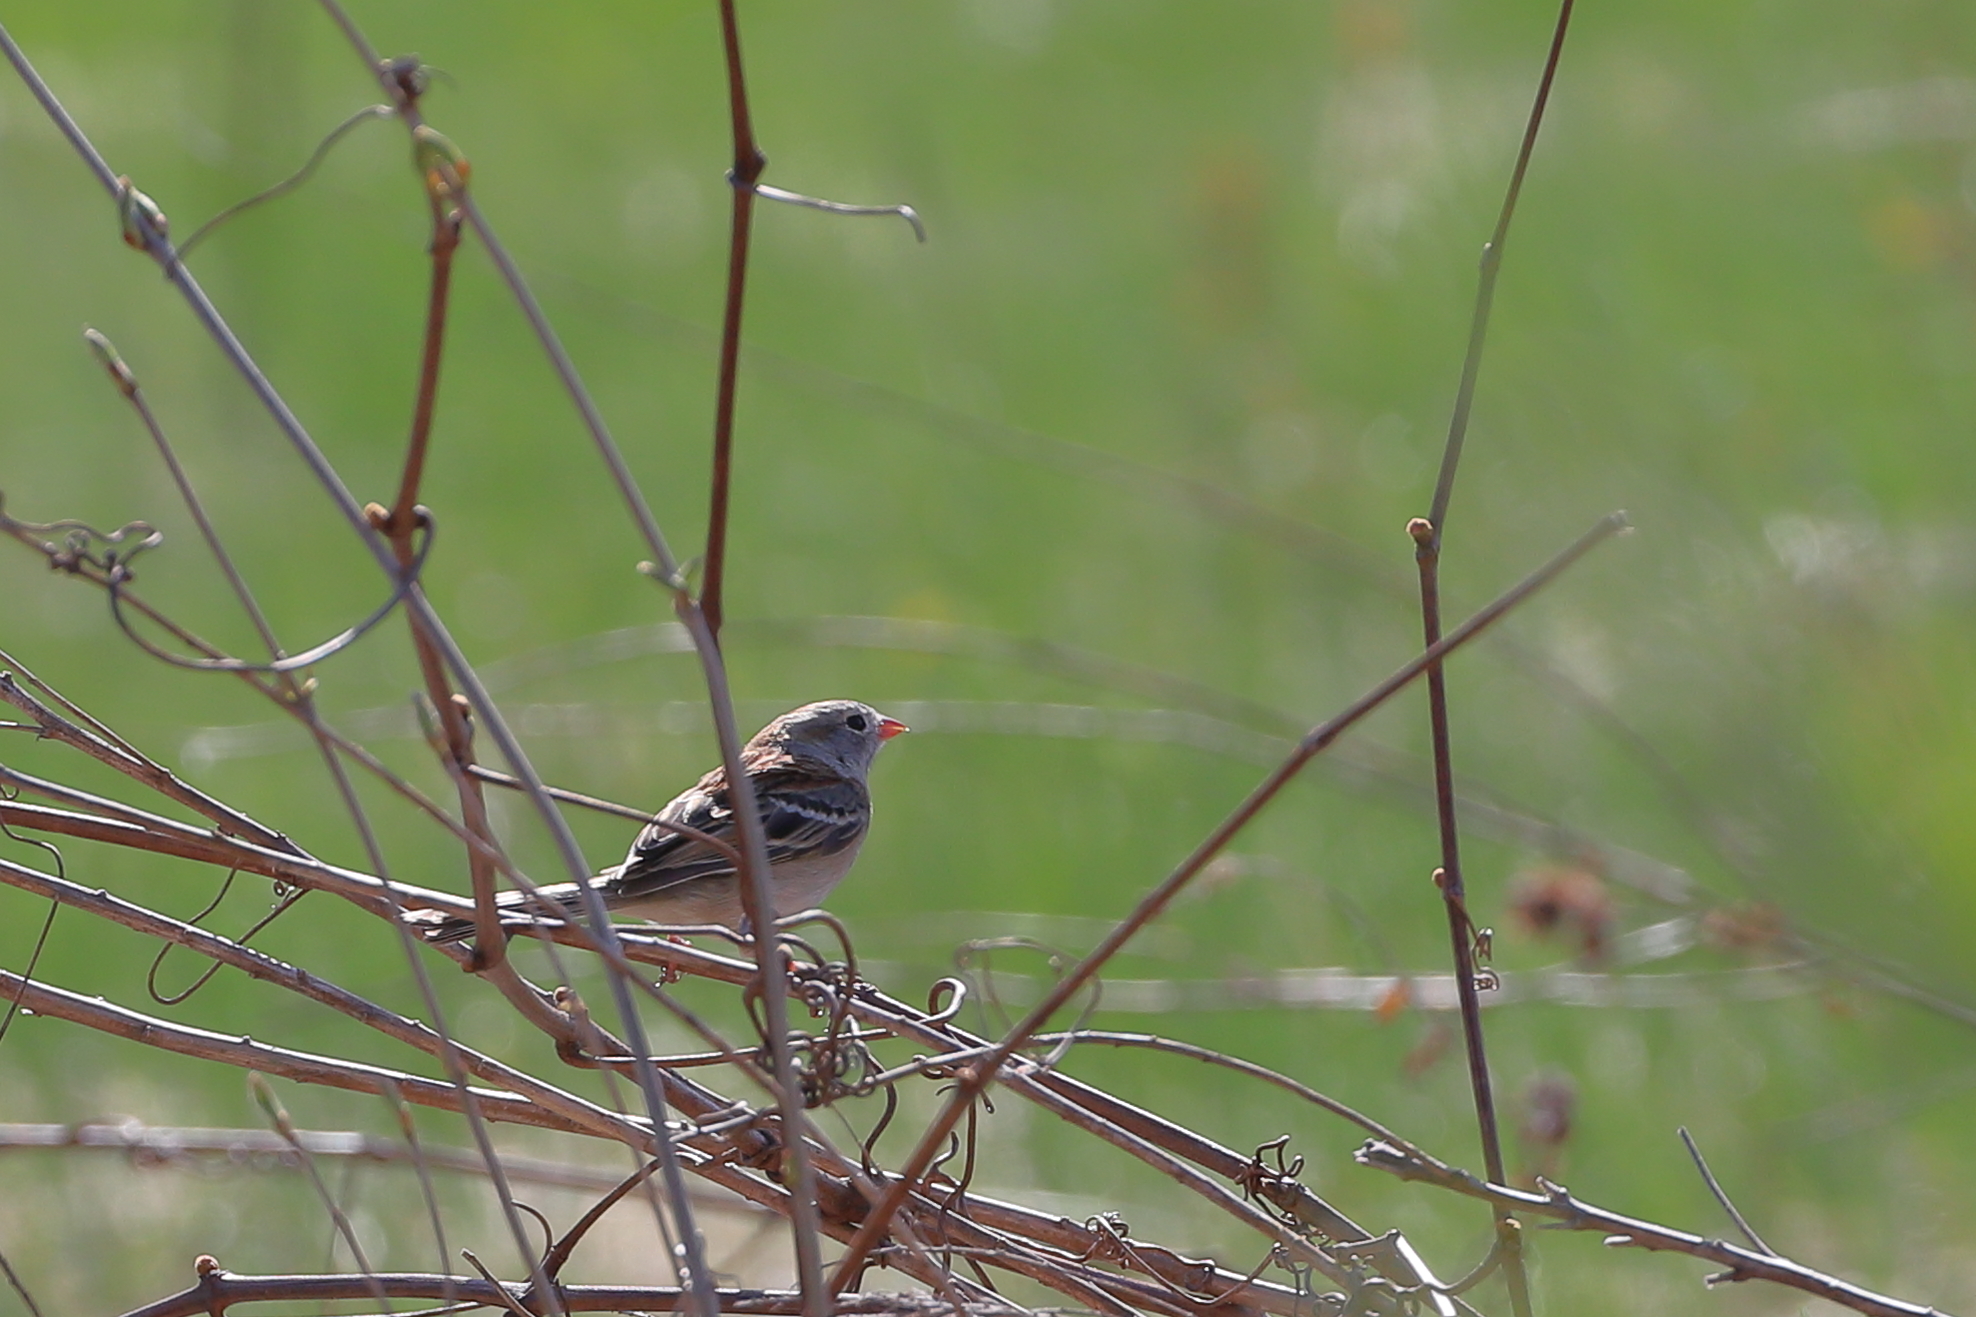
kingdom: Animalia
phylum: Chordata
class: Aves
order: Passeriformes
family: Passerellidae
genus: Spizella
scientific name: Spizella pusilla
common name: Field sparrow
